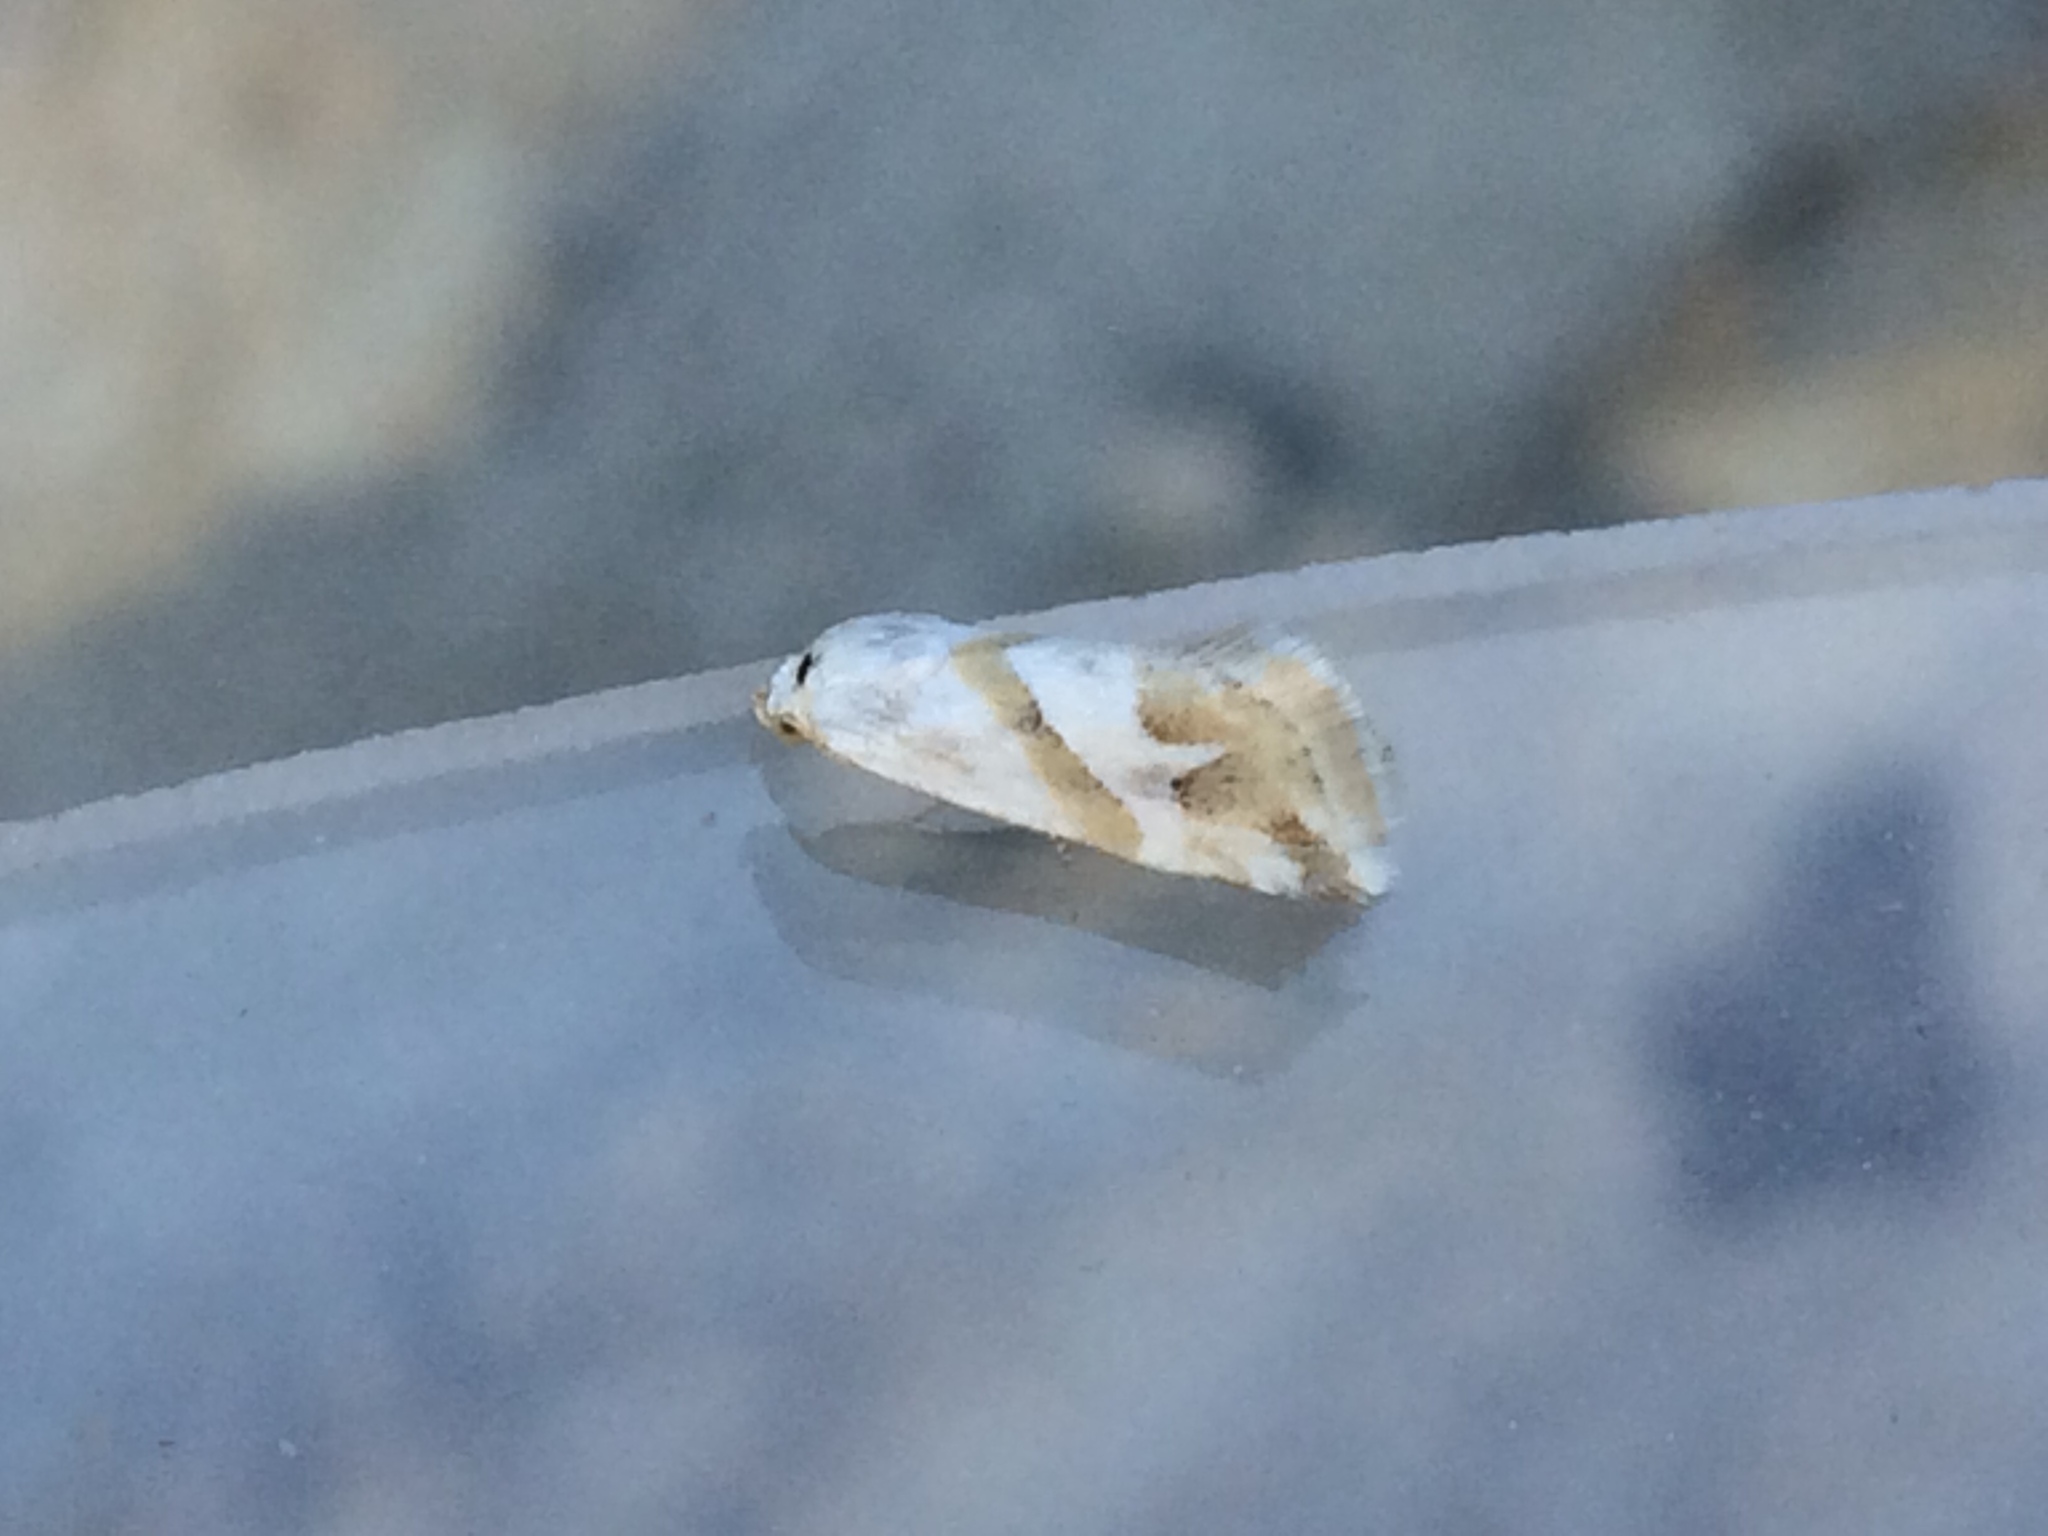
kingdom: Animalia
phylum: Arthropoda
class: Insecta
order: Lepidoptera
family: Noctuidae
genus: Eublemma
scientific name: Eublemma viridula
